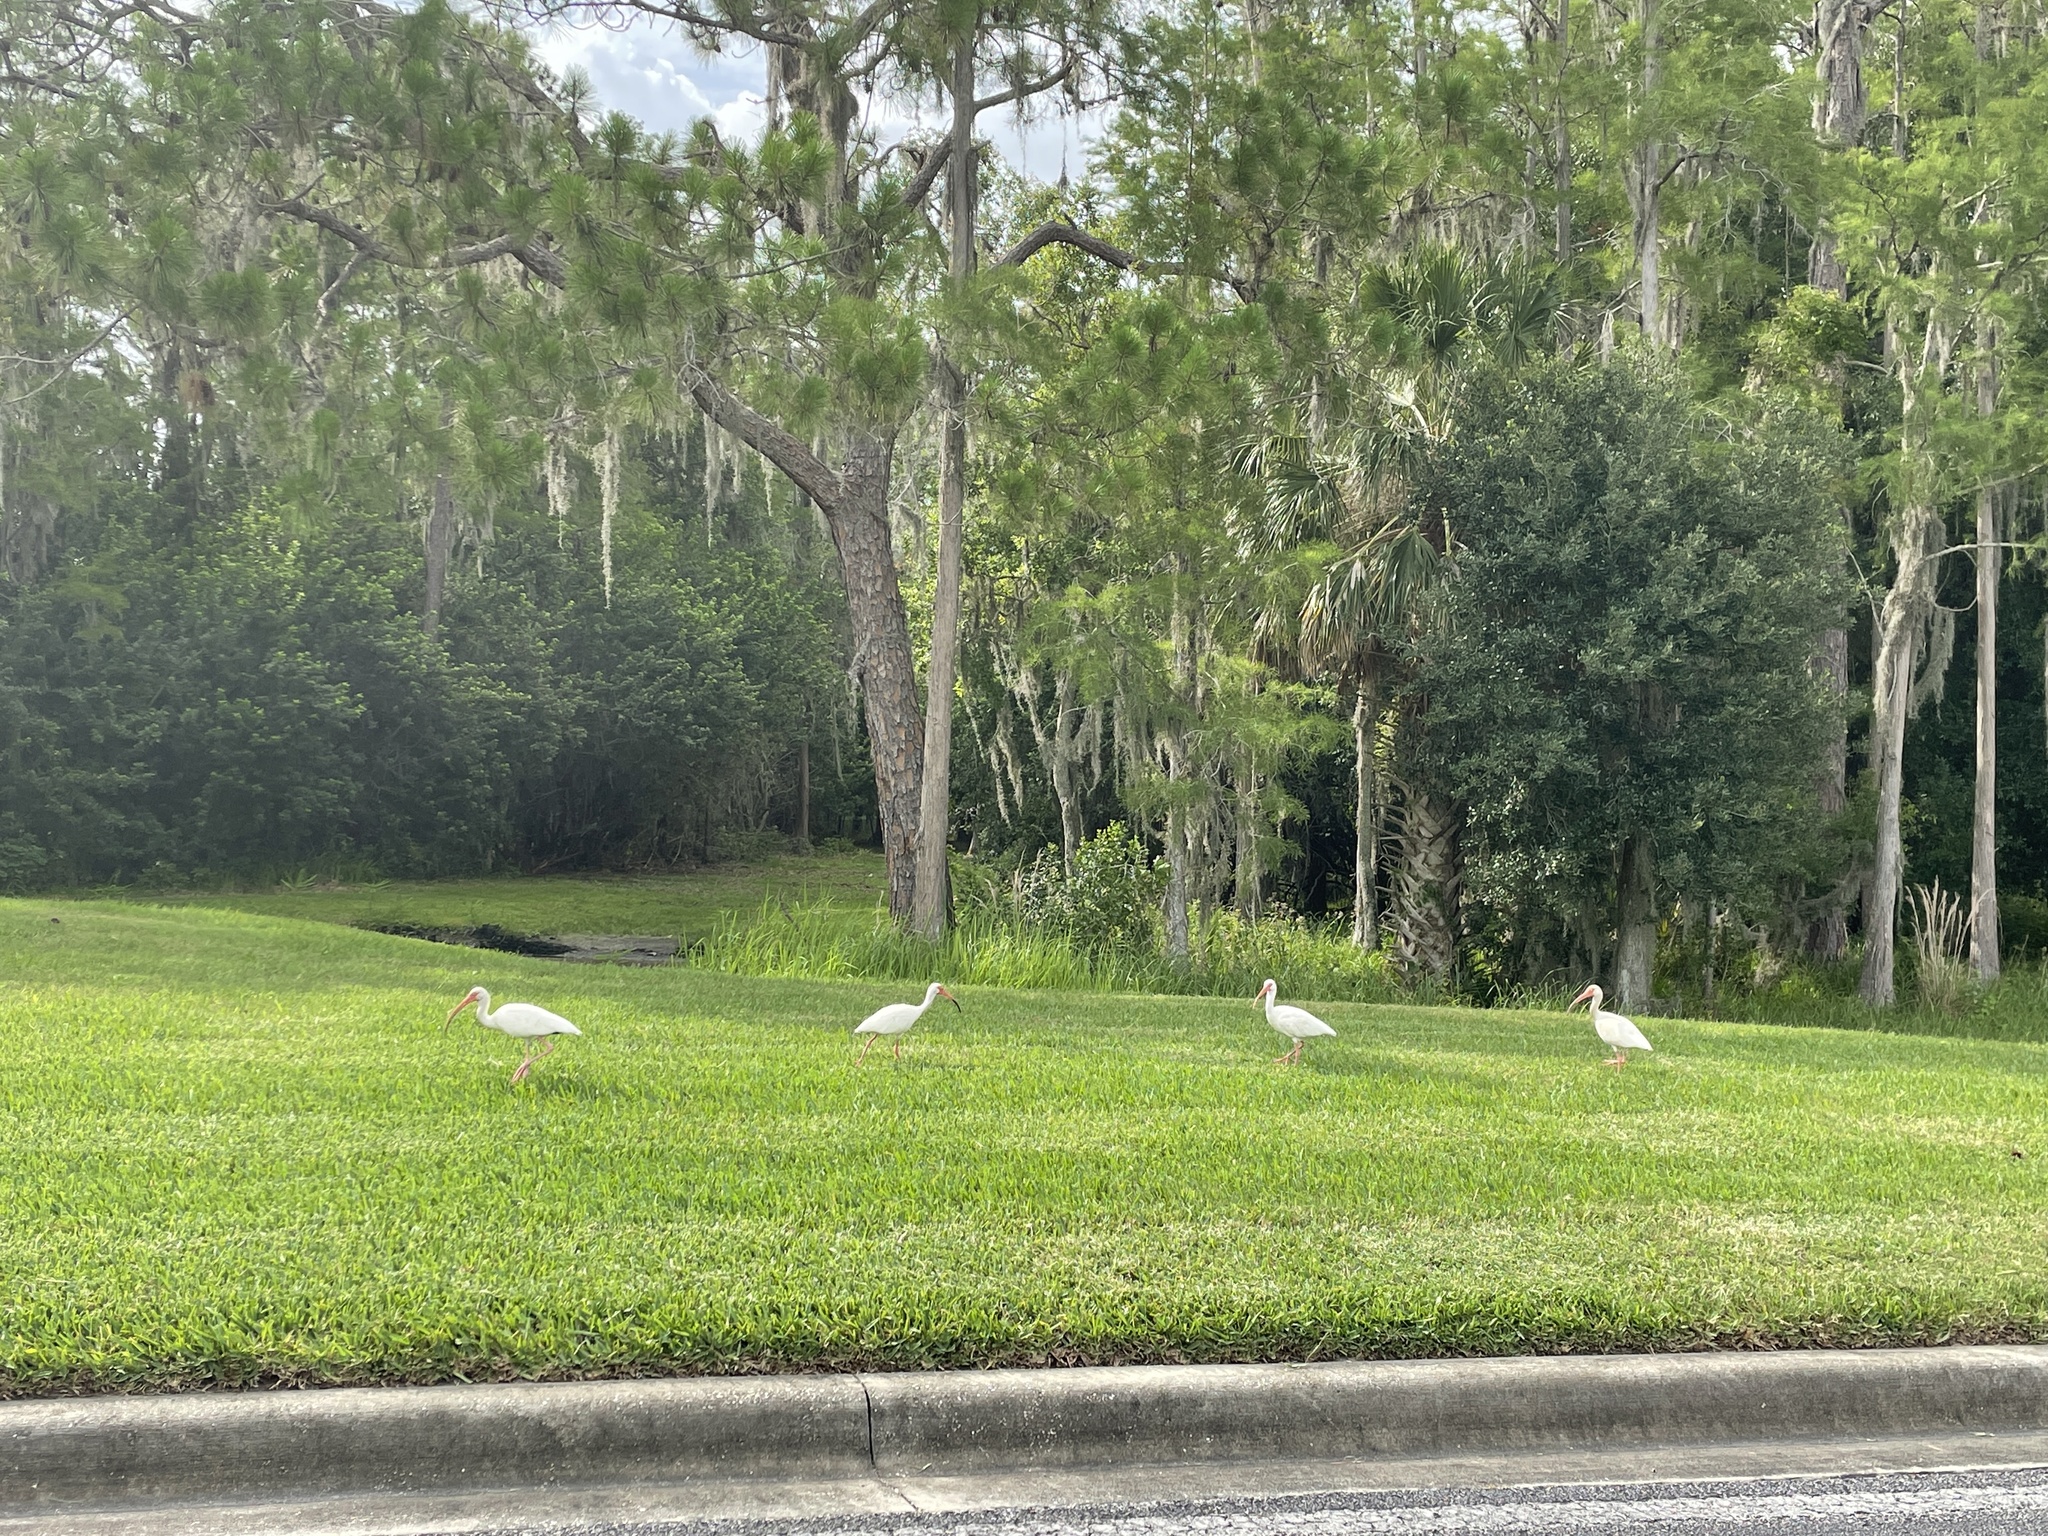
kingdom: Animalia
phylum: Chordata
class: Aves
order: Pelecaniformes
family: Threskiornithidae
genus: Eudocimus
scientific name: Eudocimus albus
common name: White ibis
